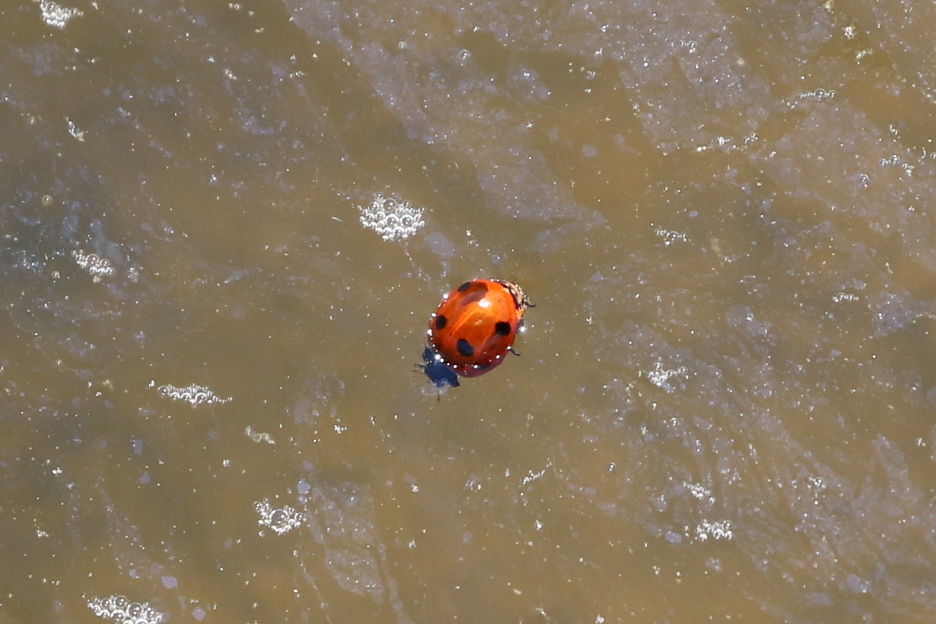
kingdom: Animalia
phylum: Arthropoda
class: Insecta
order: Coleoptera
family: Coccinellidae
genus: Coccinella
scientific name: Coccinella septempunctata
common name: Sevenspotted lady beetle
